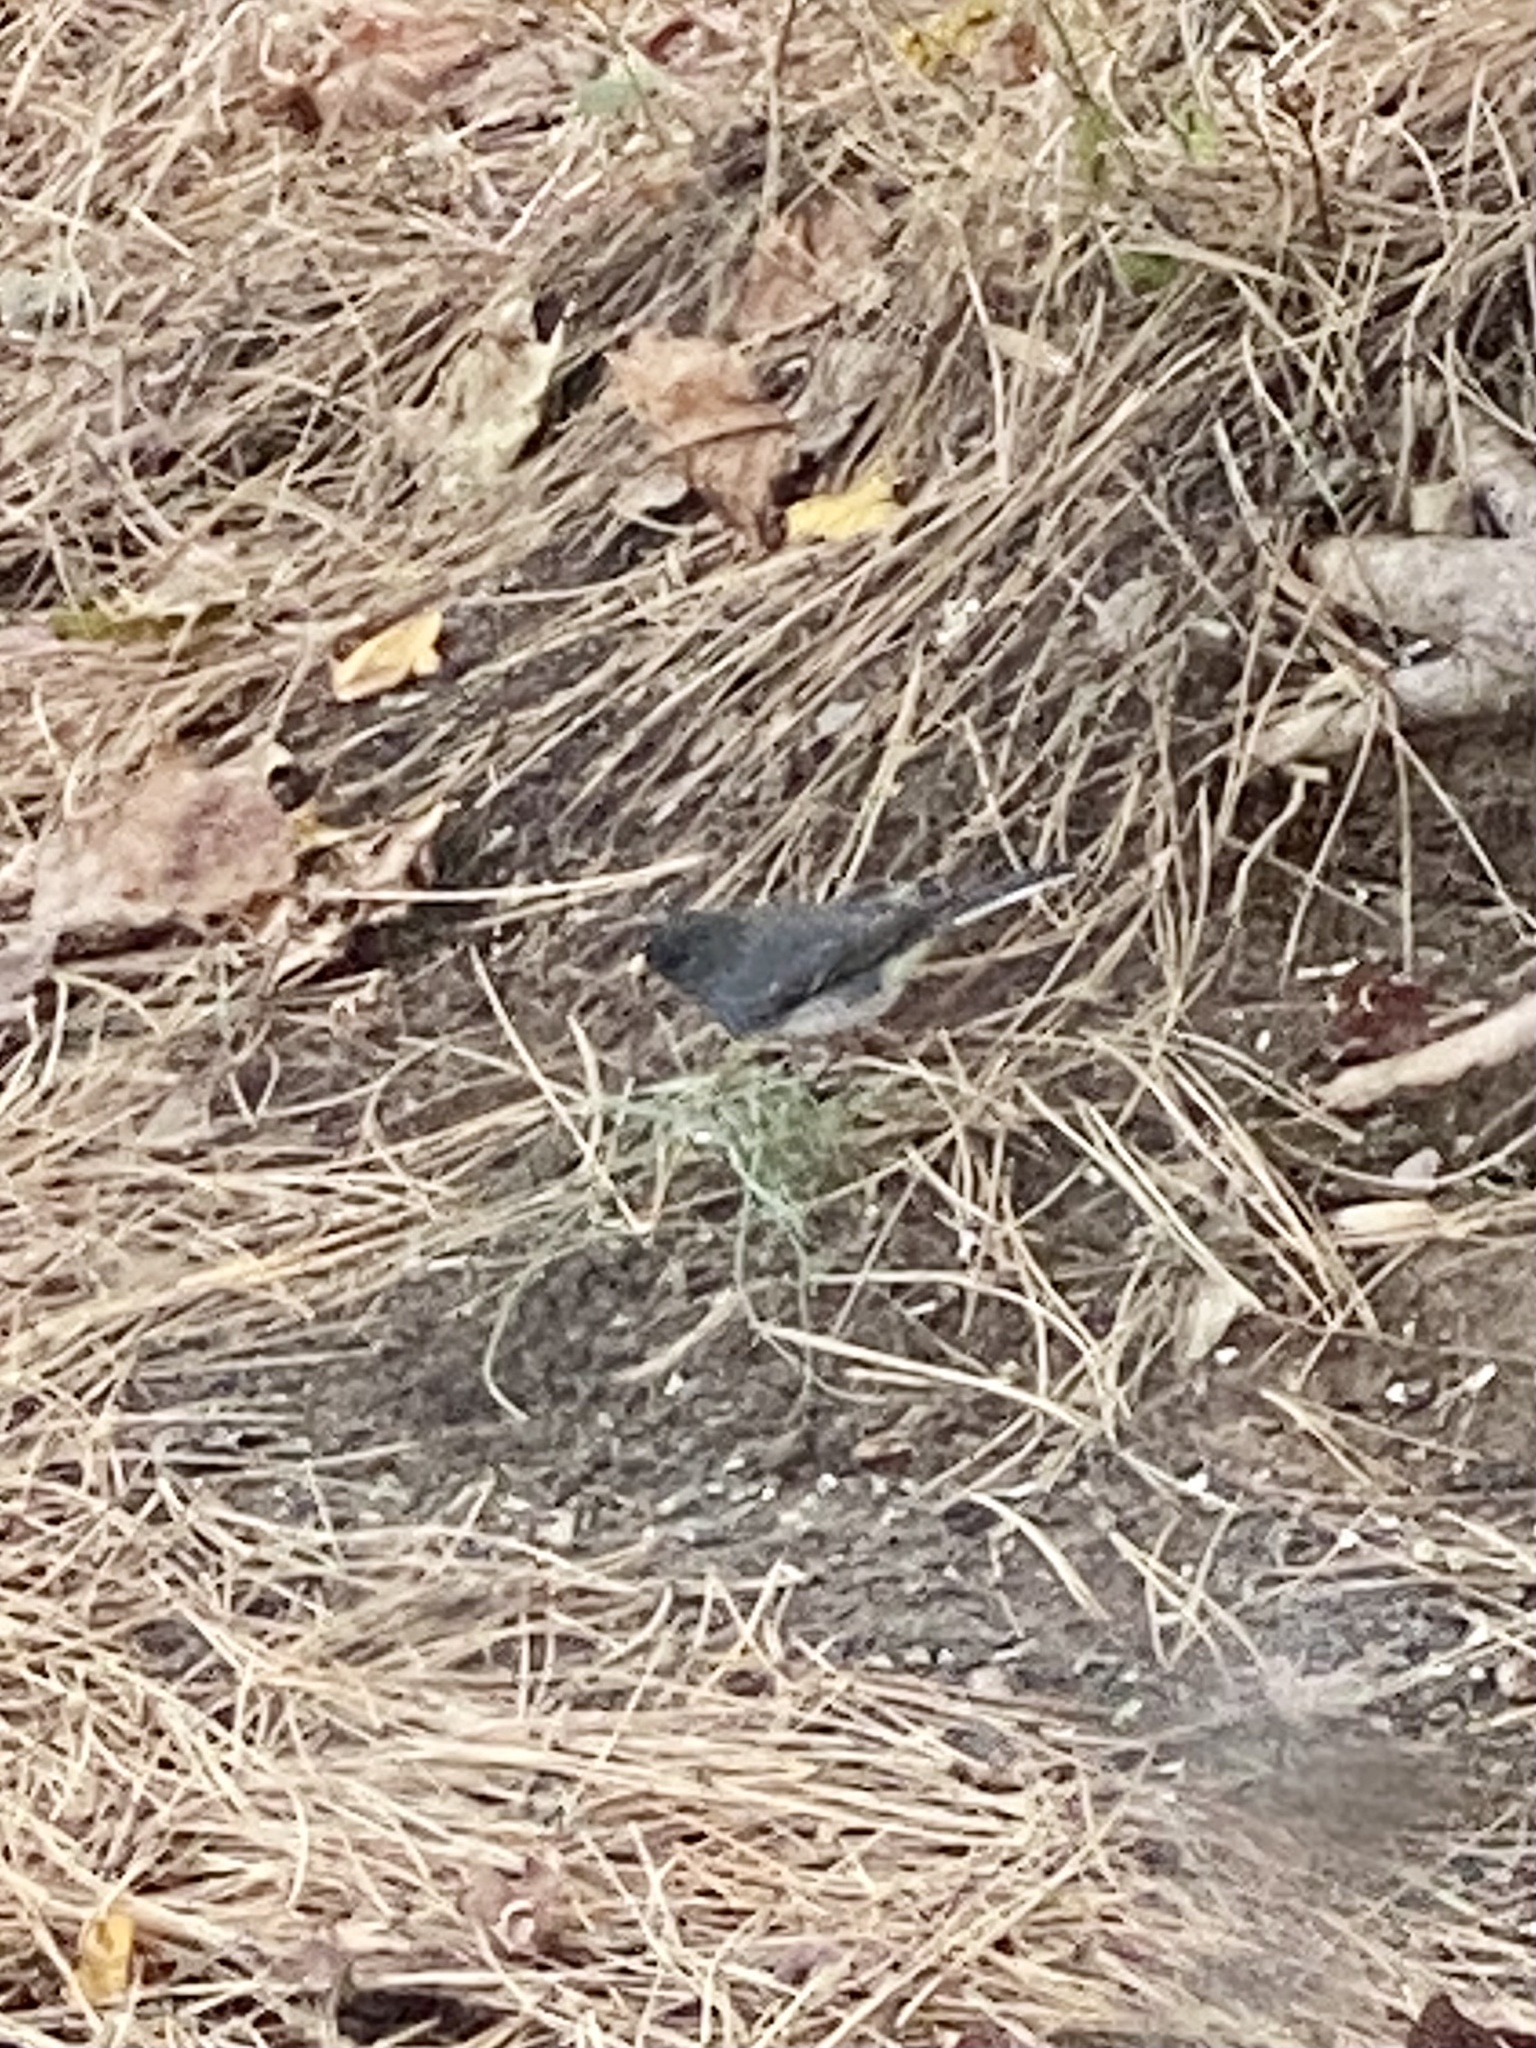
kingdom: Animalia
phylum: Chordata
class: Aves
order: Passeriformes
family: Passerellidae
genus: Junco
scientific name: Junco hyemalis
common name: Dark-eyed junco
